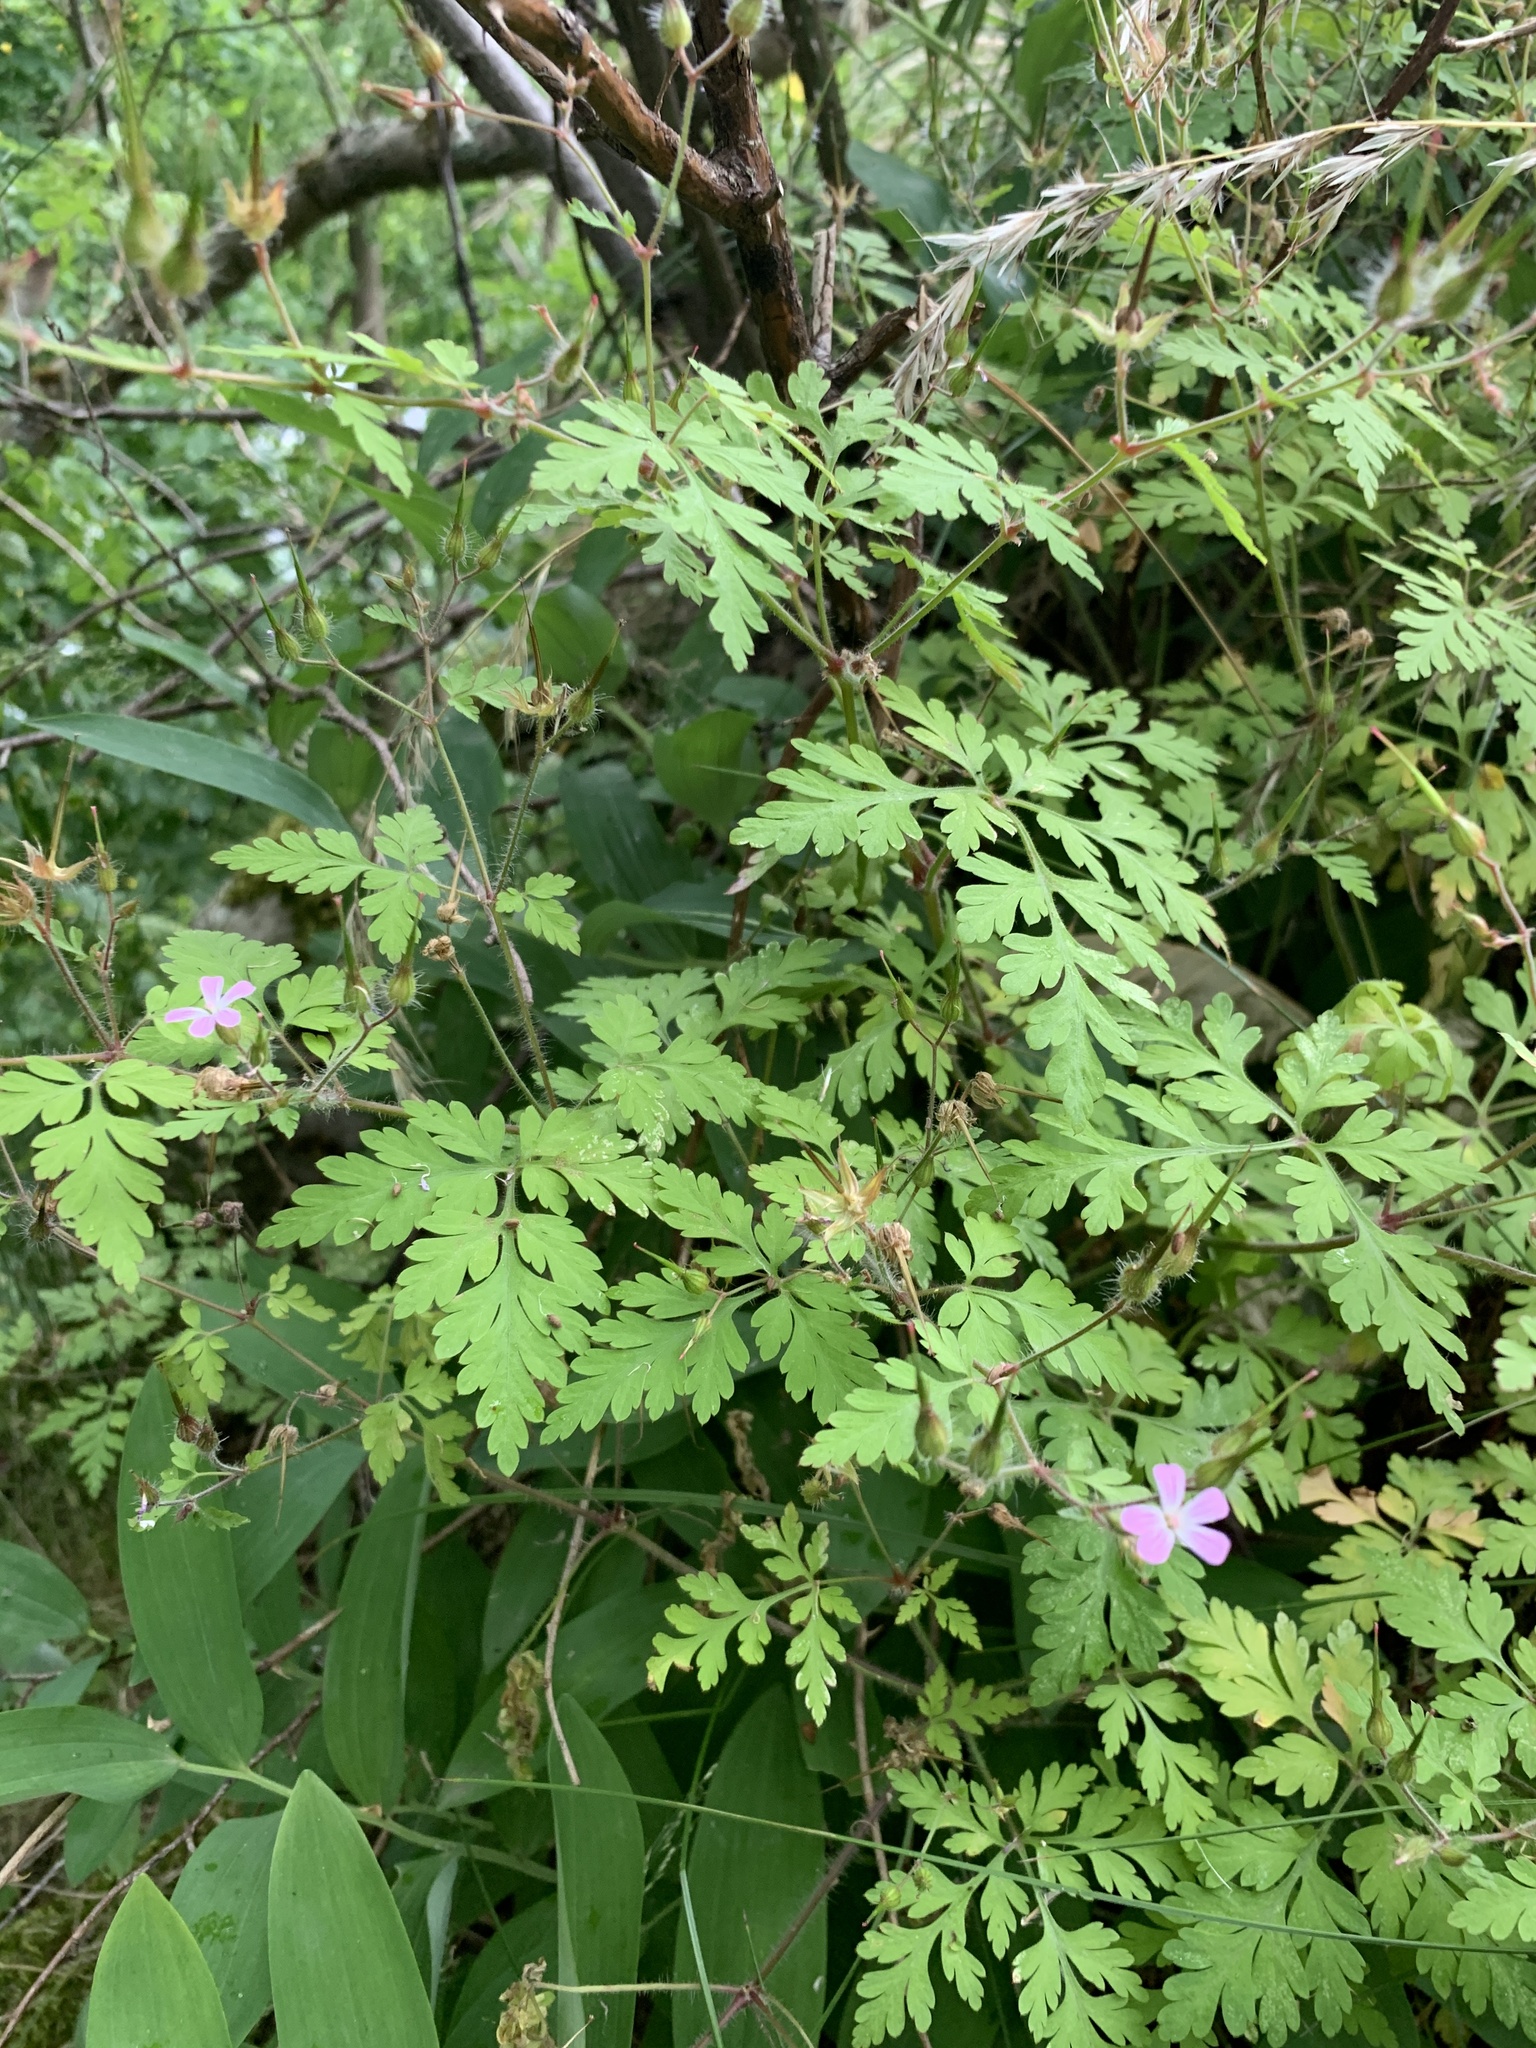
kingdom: Plantae
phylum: Tracheophyta
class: Magnoliopsida
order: Geraniales
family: Geraniaceae
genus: Geranium
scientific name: Geranium robertianum
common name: Herb-robert
